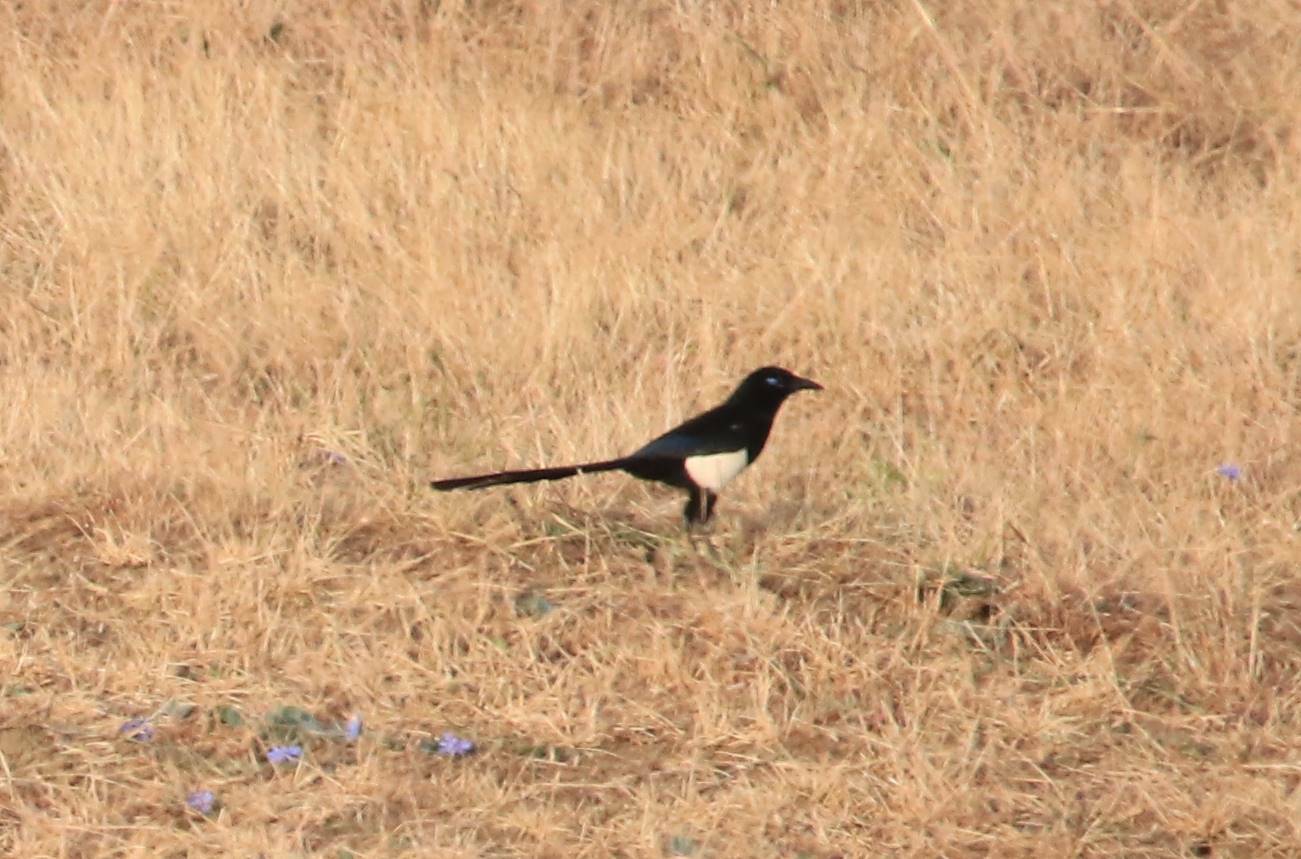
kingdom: Animalia
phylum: Chordata
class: Aves
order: Passeriformes
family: Corvidae
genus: Pica
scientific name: Pica mauritanica
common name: Maghreb magpie
